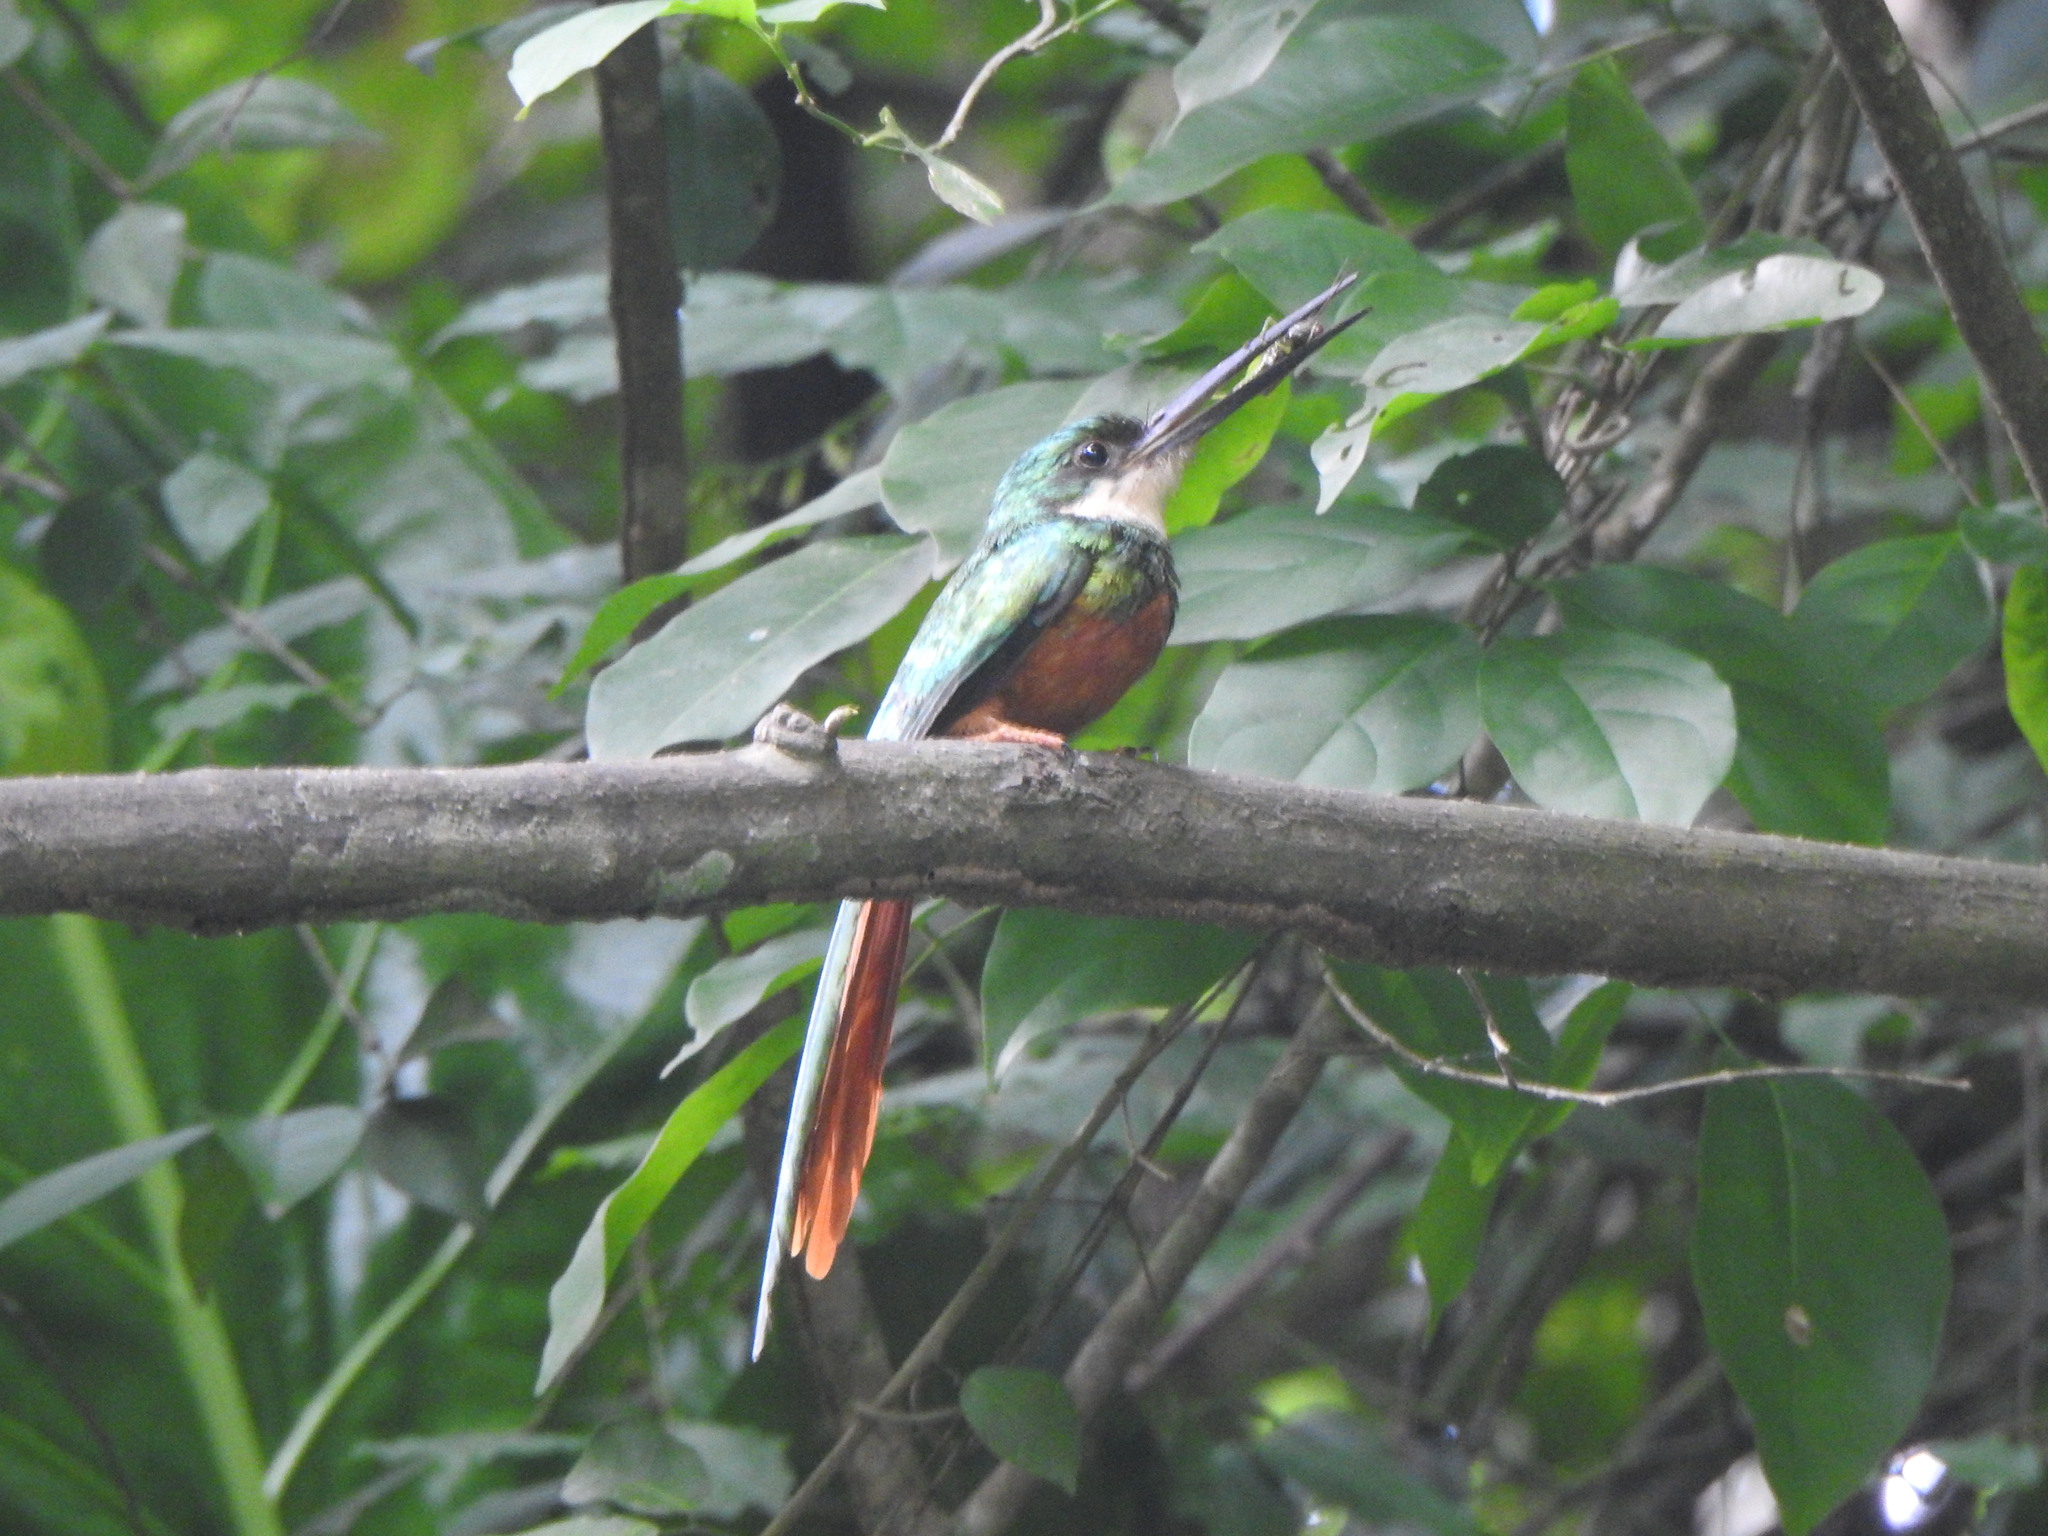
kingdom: Animalia
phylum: Chordata
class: Aves
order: Piciformes
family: Galbulidae
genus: Galbula
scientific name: Galbula ruficauda
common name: Rufous-tailed jacamar
